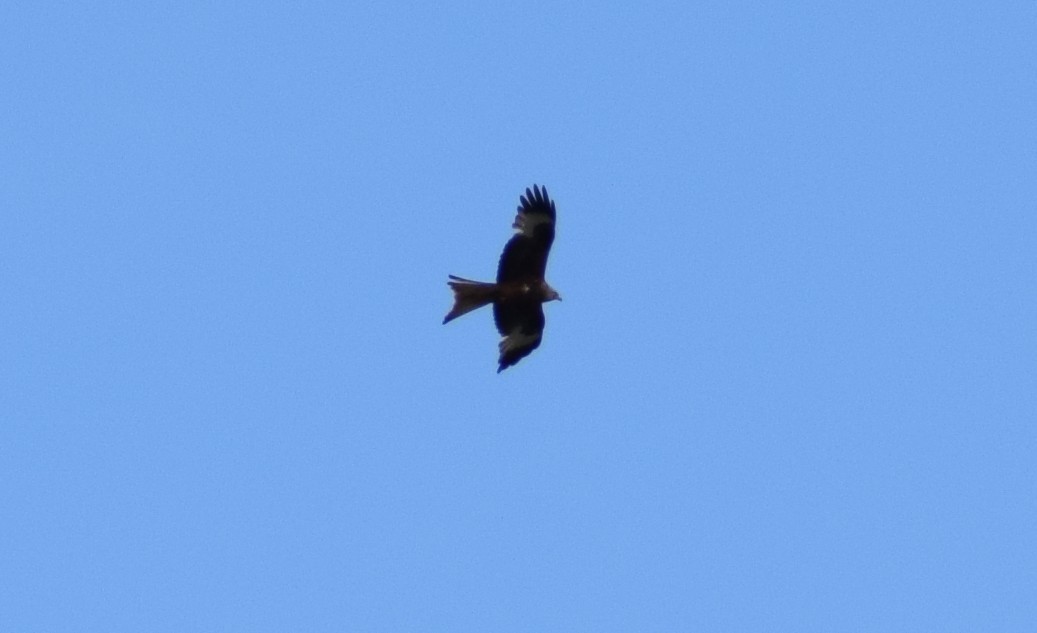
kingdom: Animalia
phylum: Chordata
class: Aves
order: Accipitriformes
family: Accipitridae
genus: Milvus
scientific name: Milvus milvus
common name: Red kite
